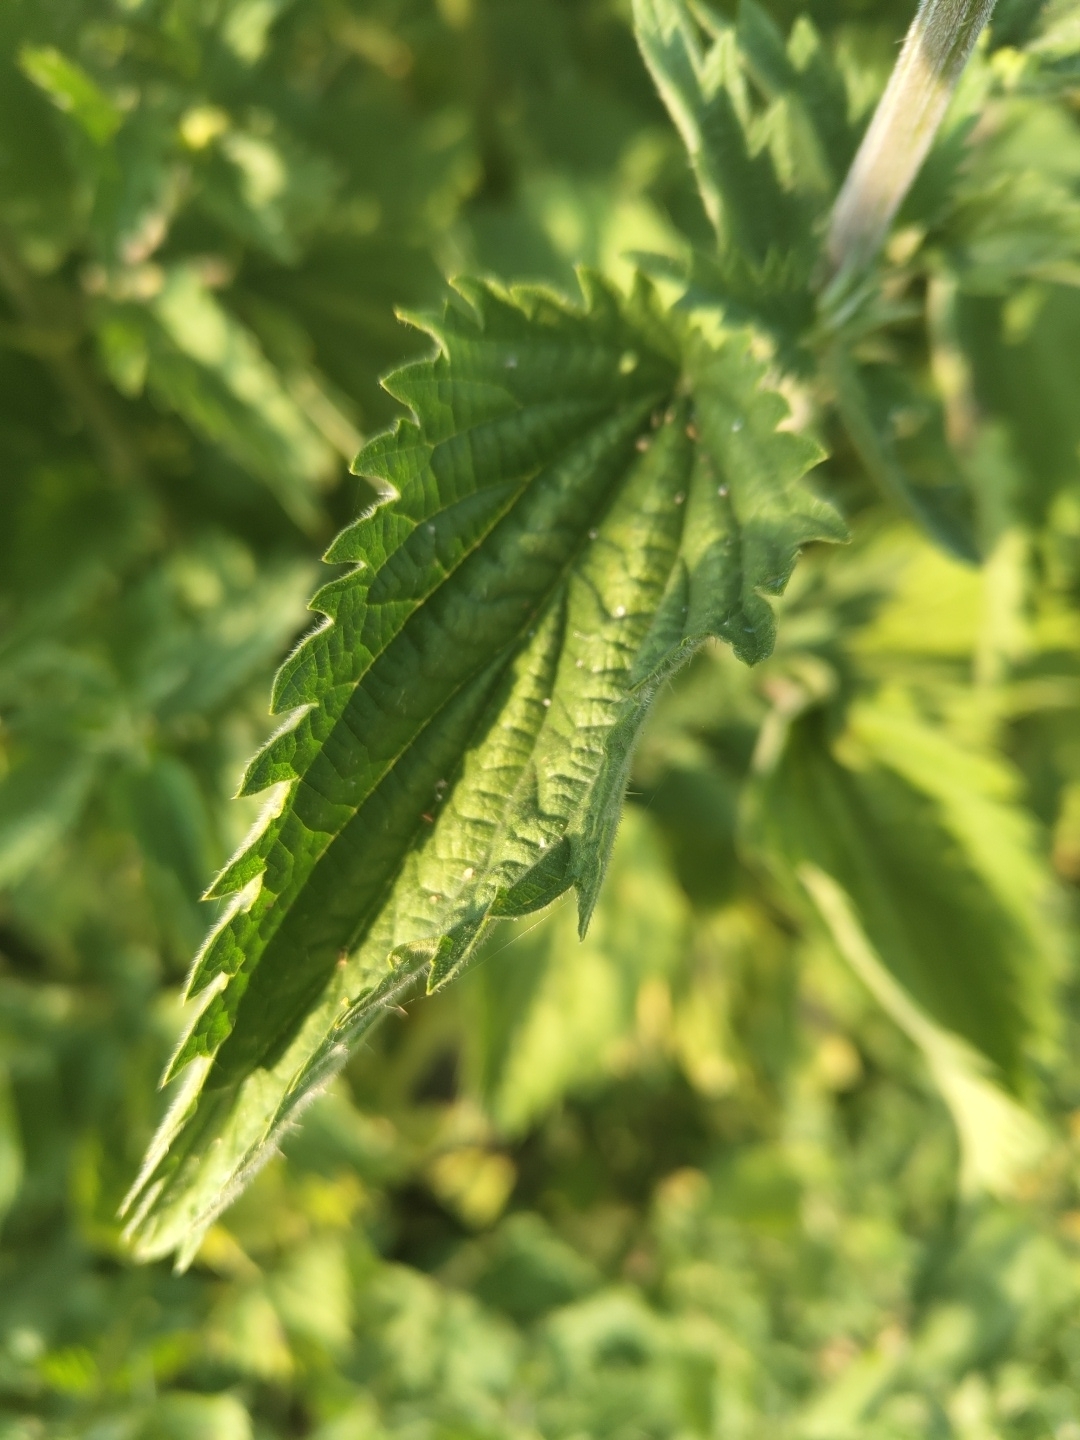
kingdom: Plantae
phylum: Tracheophyta
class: Magnoliopsida
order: Rosales
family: Urticaceae
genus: Urtica
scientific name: Urtica dioica
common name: Common nettle
